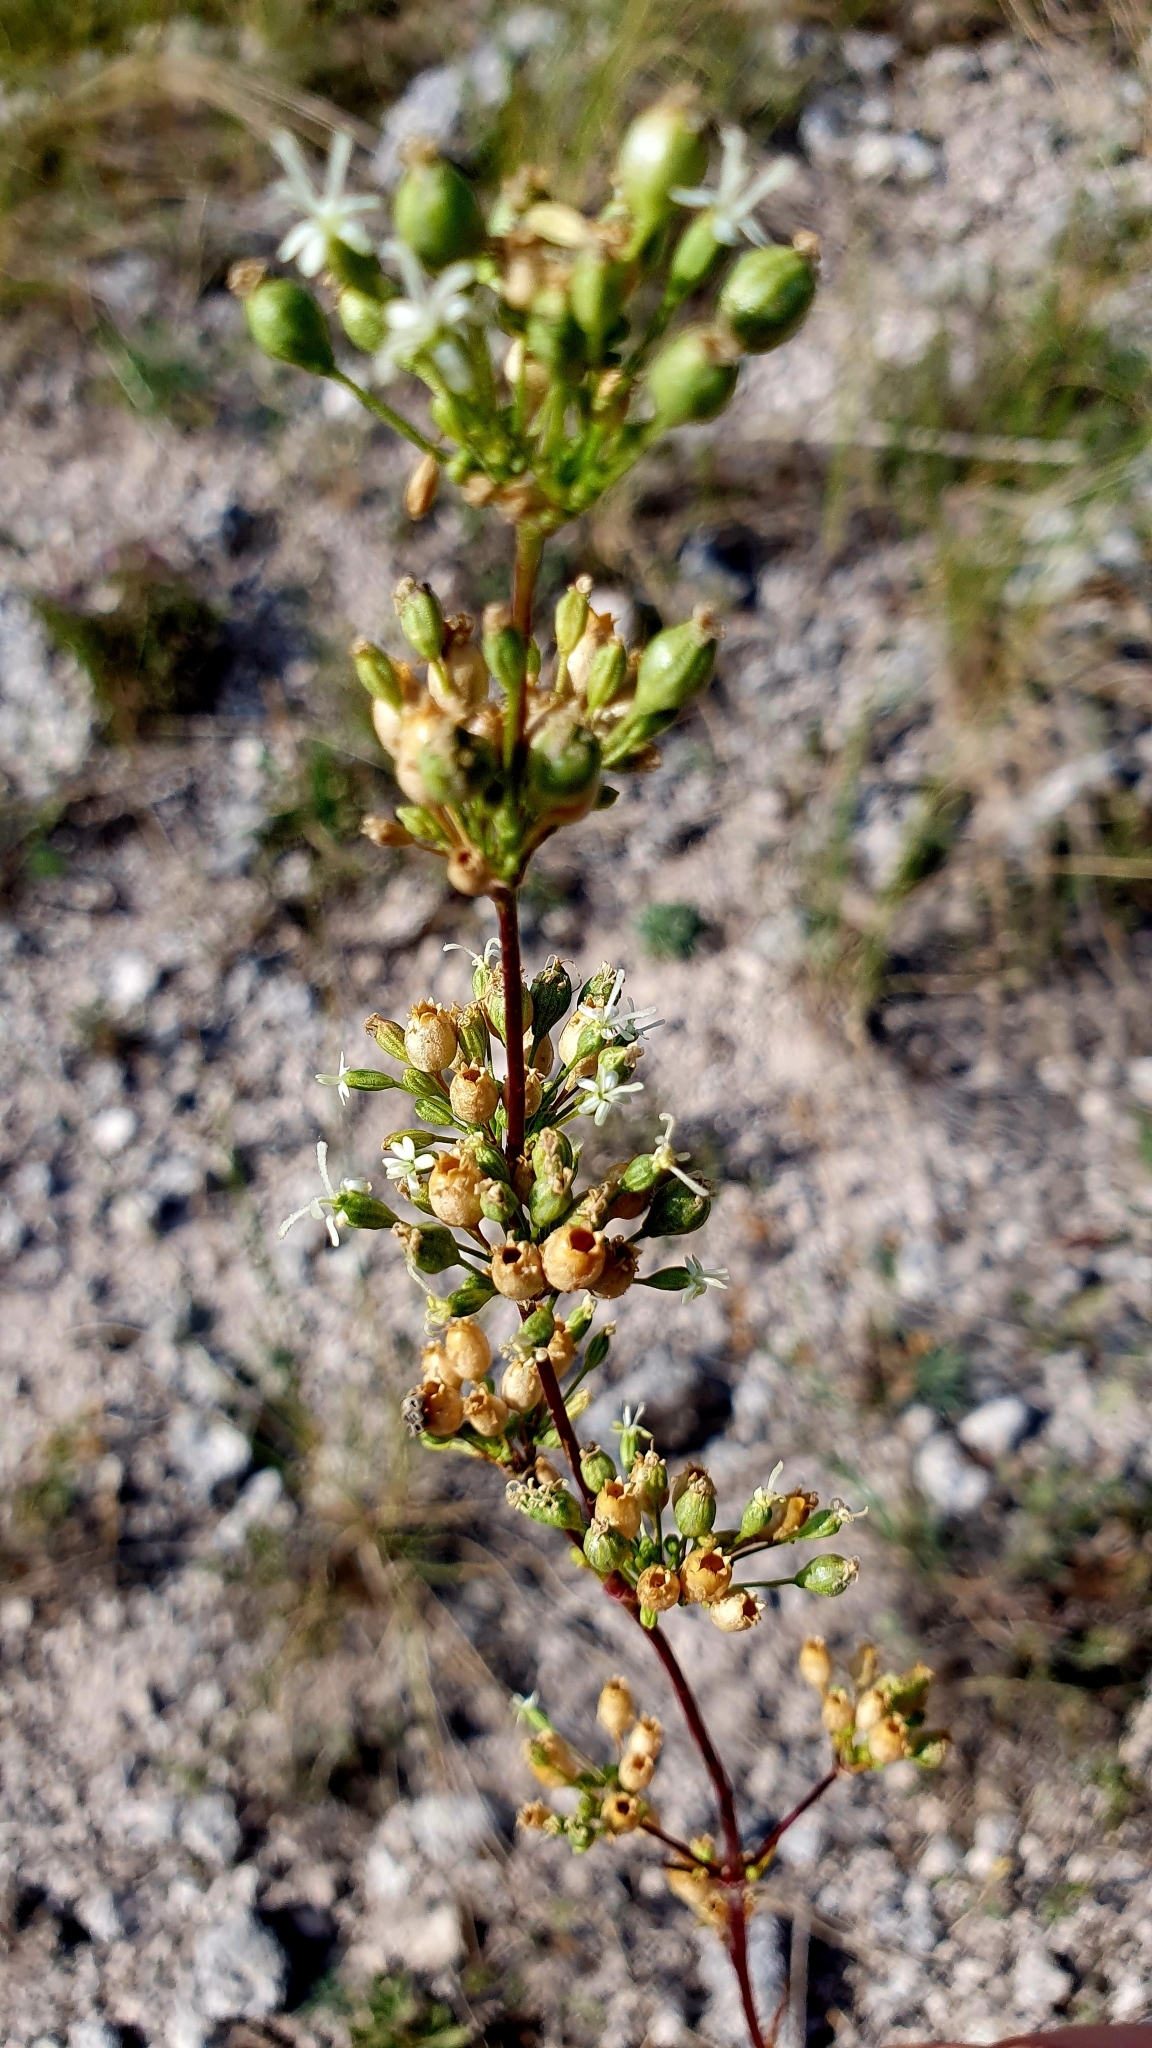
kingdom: Plantae
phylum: Tracheophyta
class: Magnoliopsida
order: Caryophyllales
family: Caryophyllaceae
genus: Silene
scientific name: Silene wolgensis
